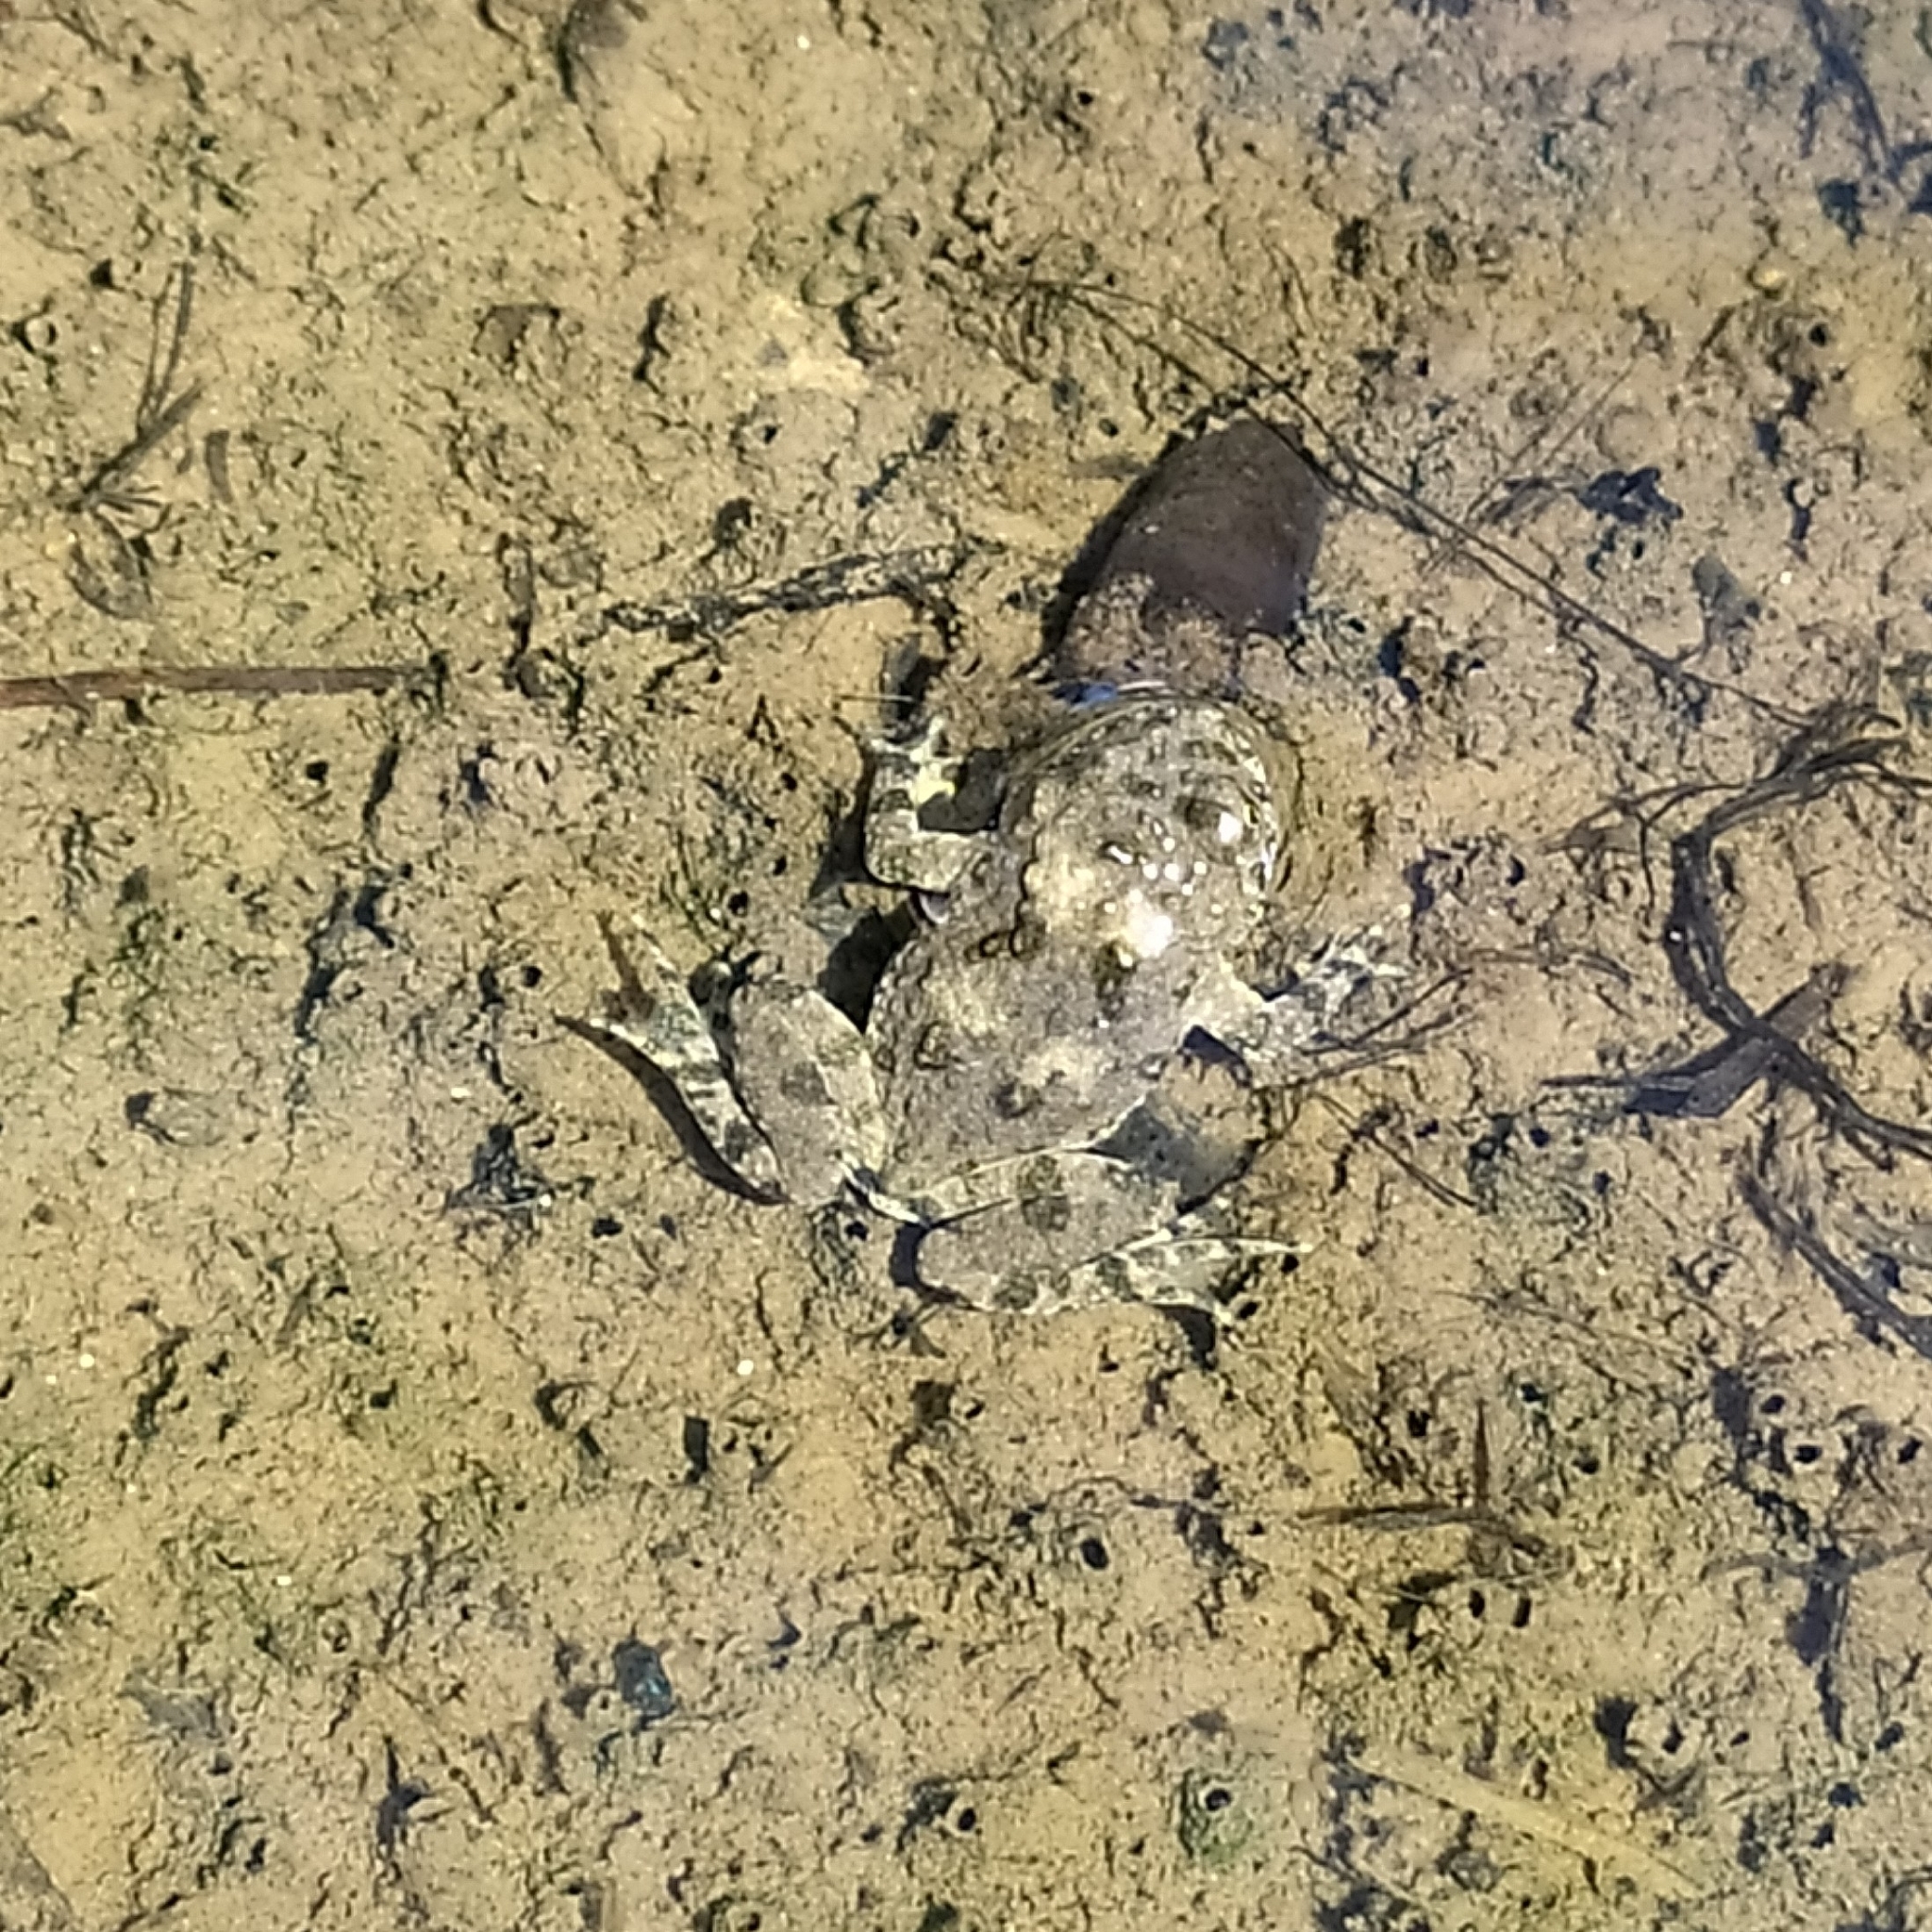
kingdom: Animalia
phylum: Chordata
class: Amphibia
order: Anura
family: Bombinatoridae
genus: Bombina
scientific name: Bombina variegata
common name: Yellow-bellied toad
